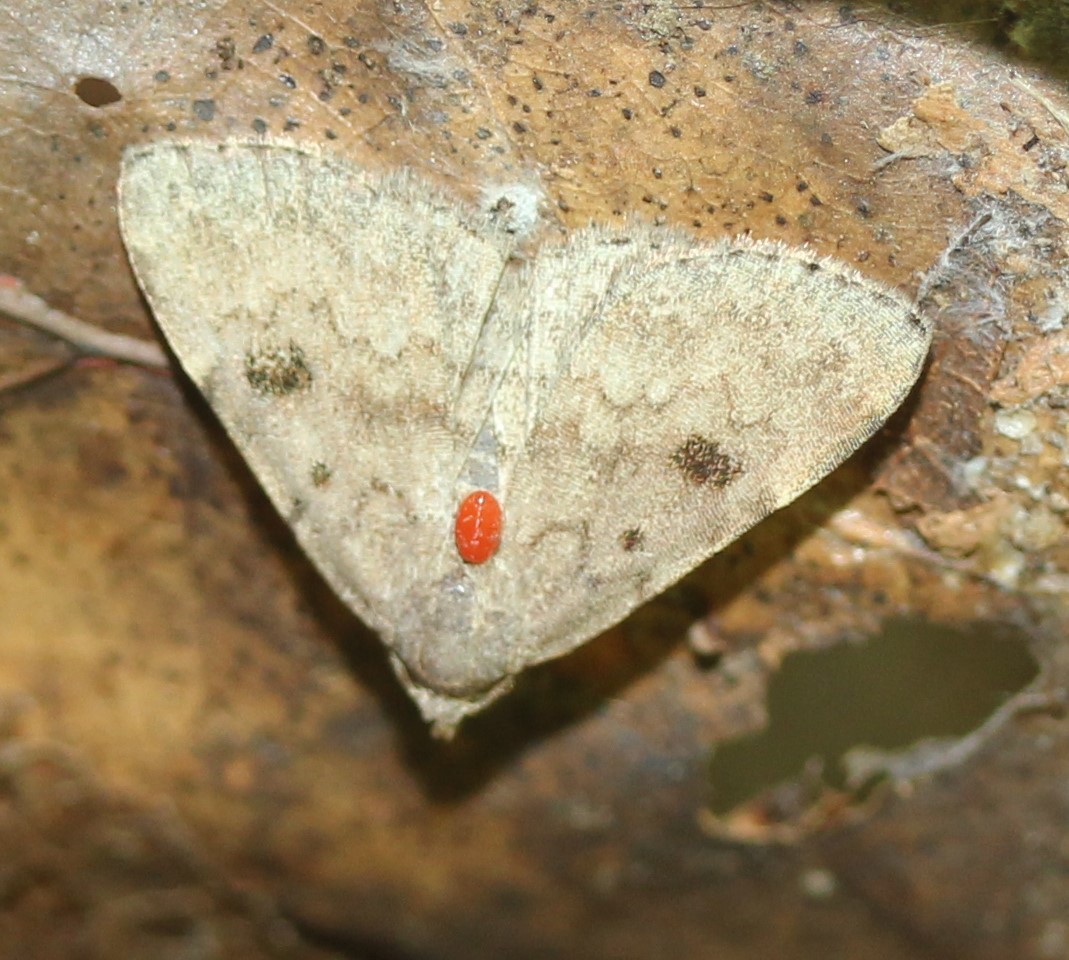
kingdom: Animalia
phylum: Arthropoda
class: Insecta
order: Lepidoptera
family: Erebidae
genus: Idia
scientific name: Idia aemula
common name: Common idia moth
